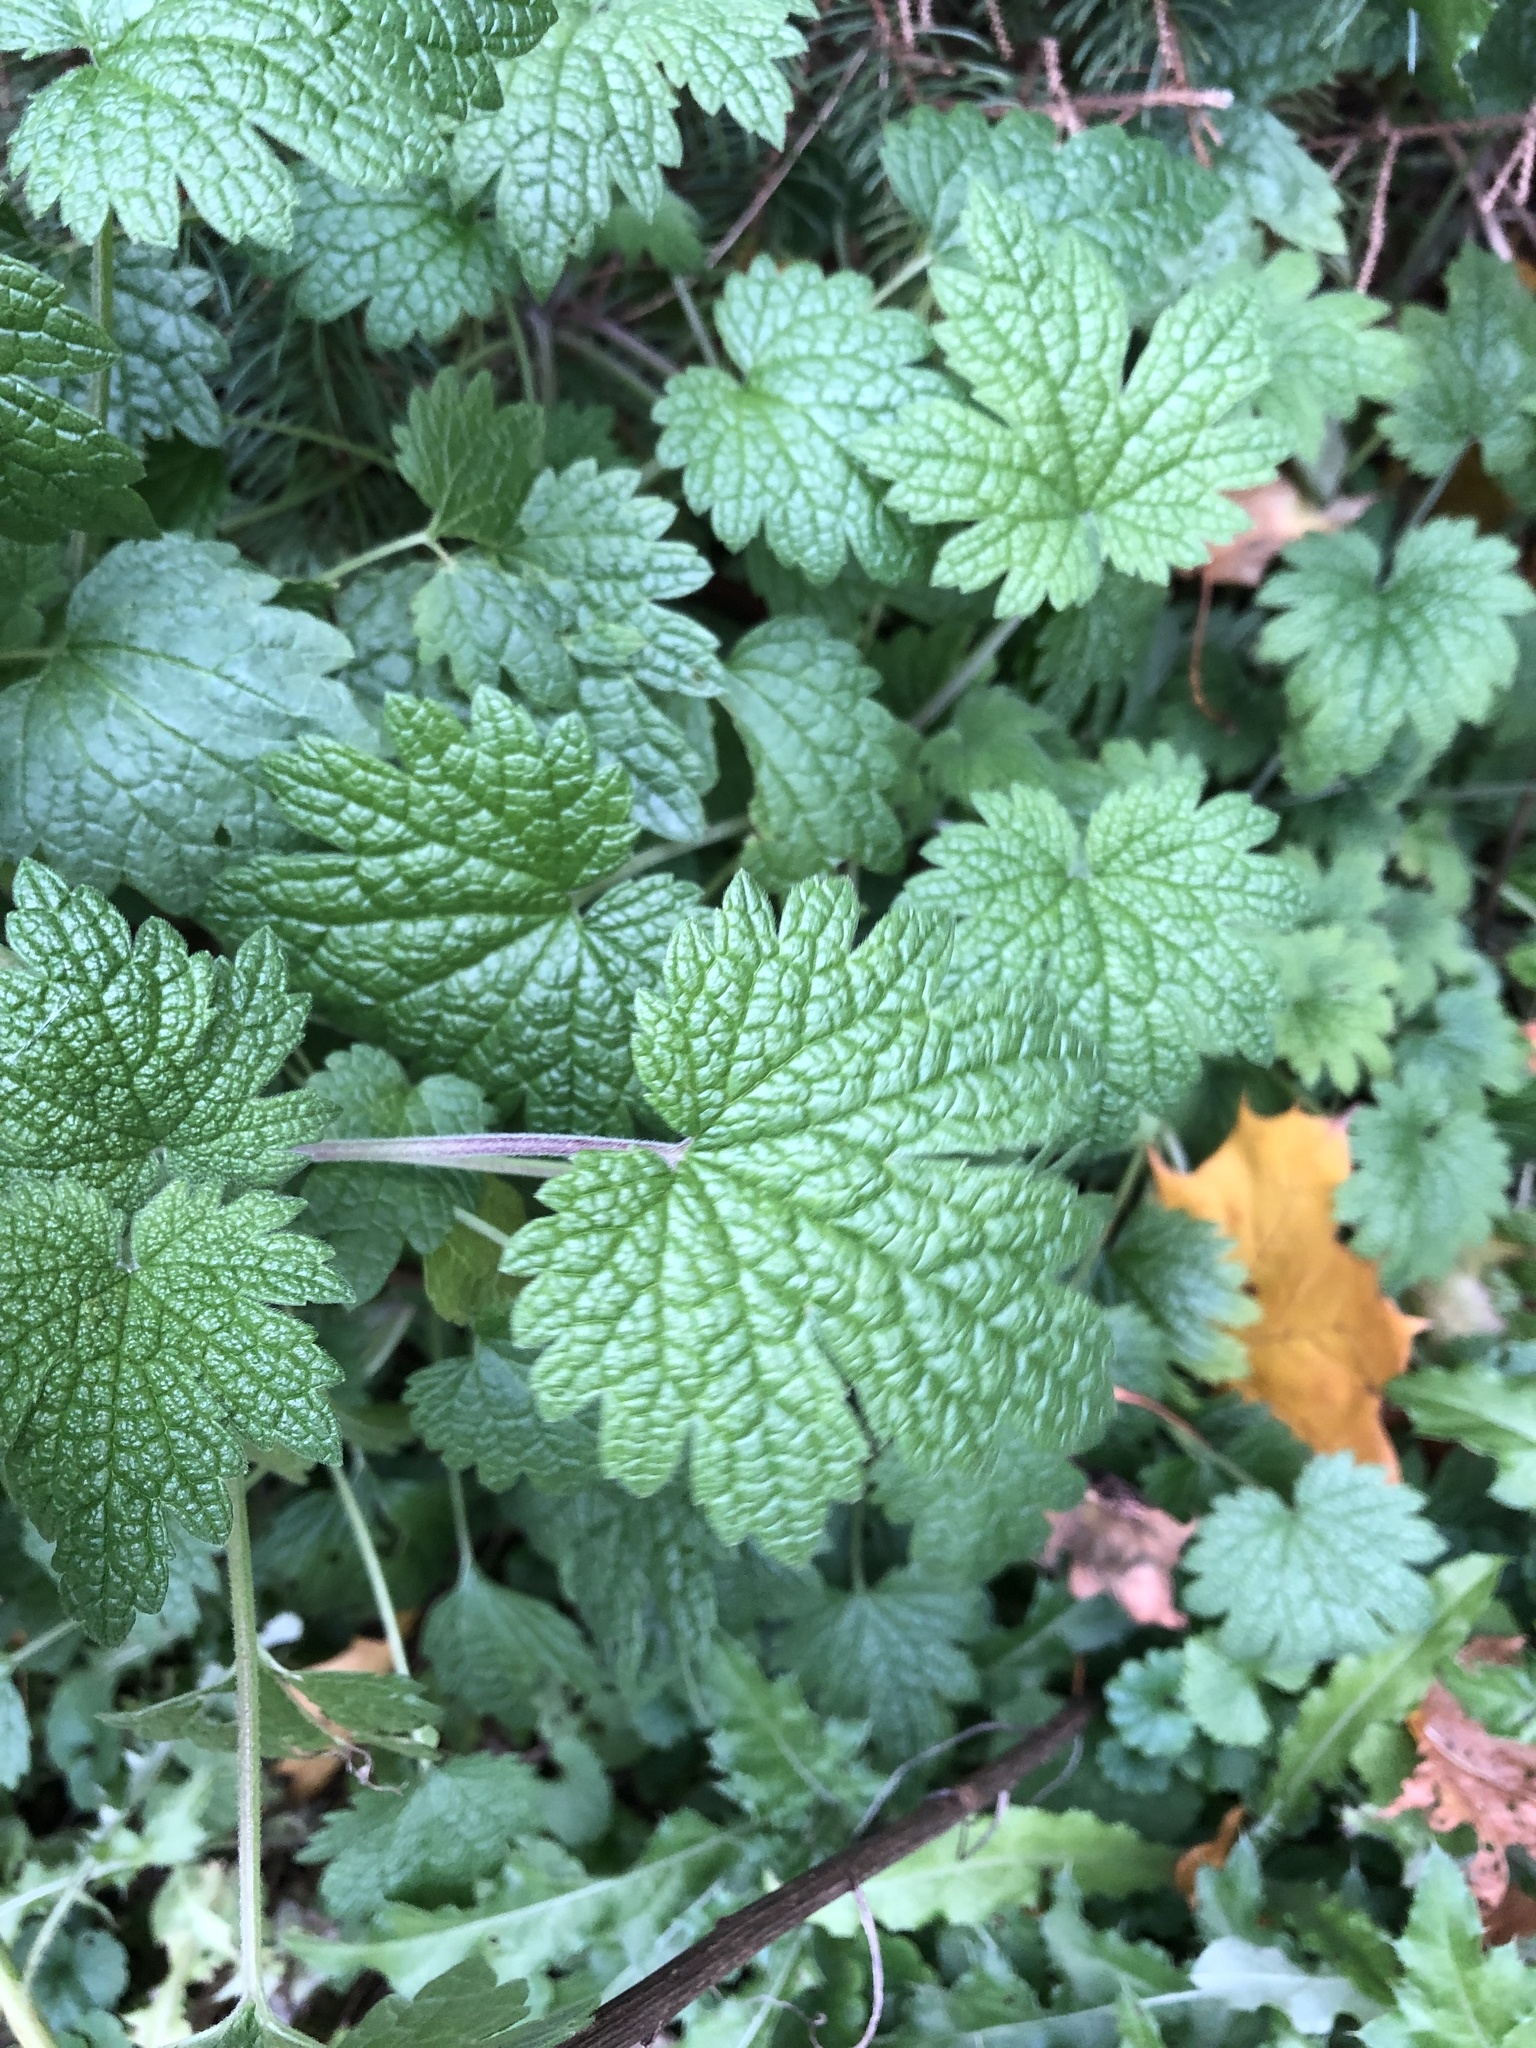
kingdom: Plantae
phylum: Tracheophyta
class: Magnoliopsida
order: Lamiales
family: Lamiaceae
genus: Leonurus
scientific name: Leonurus cardiaca
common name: Motherwort
